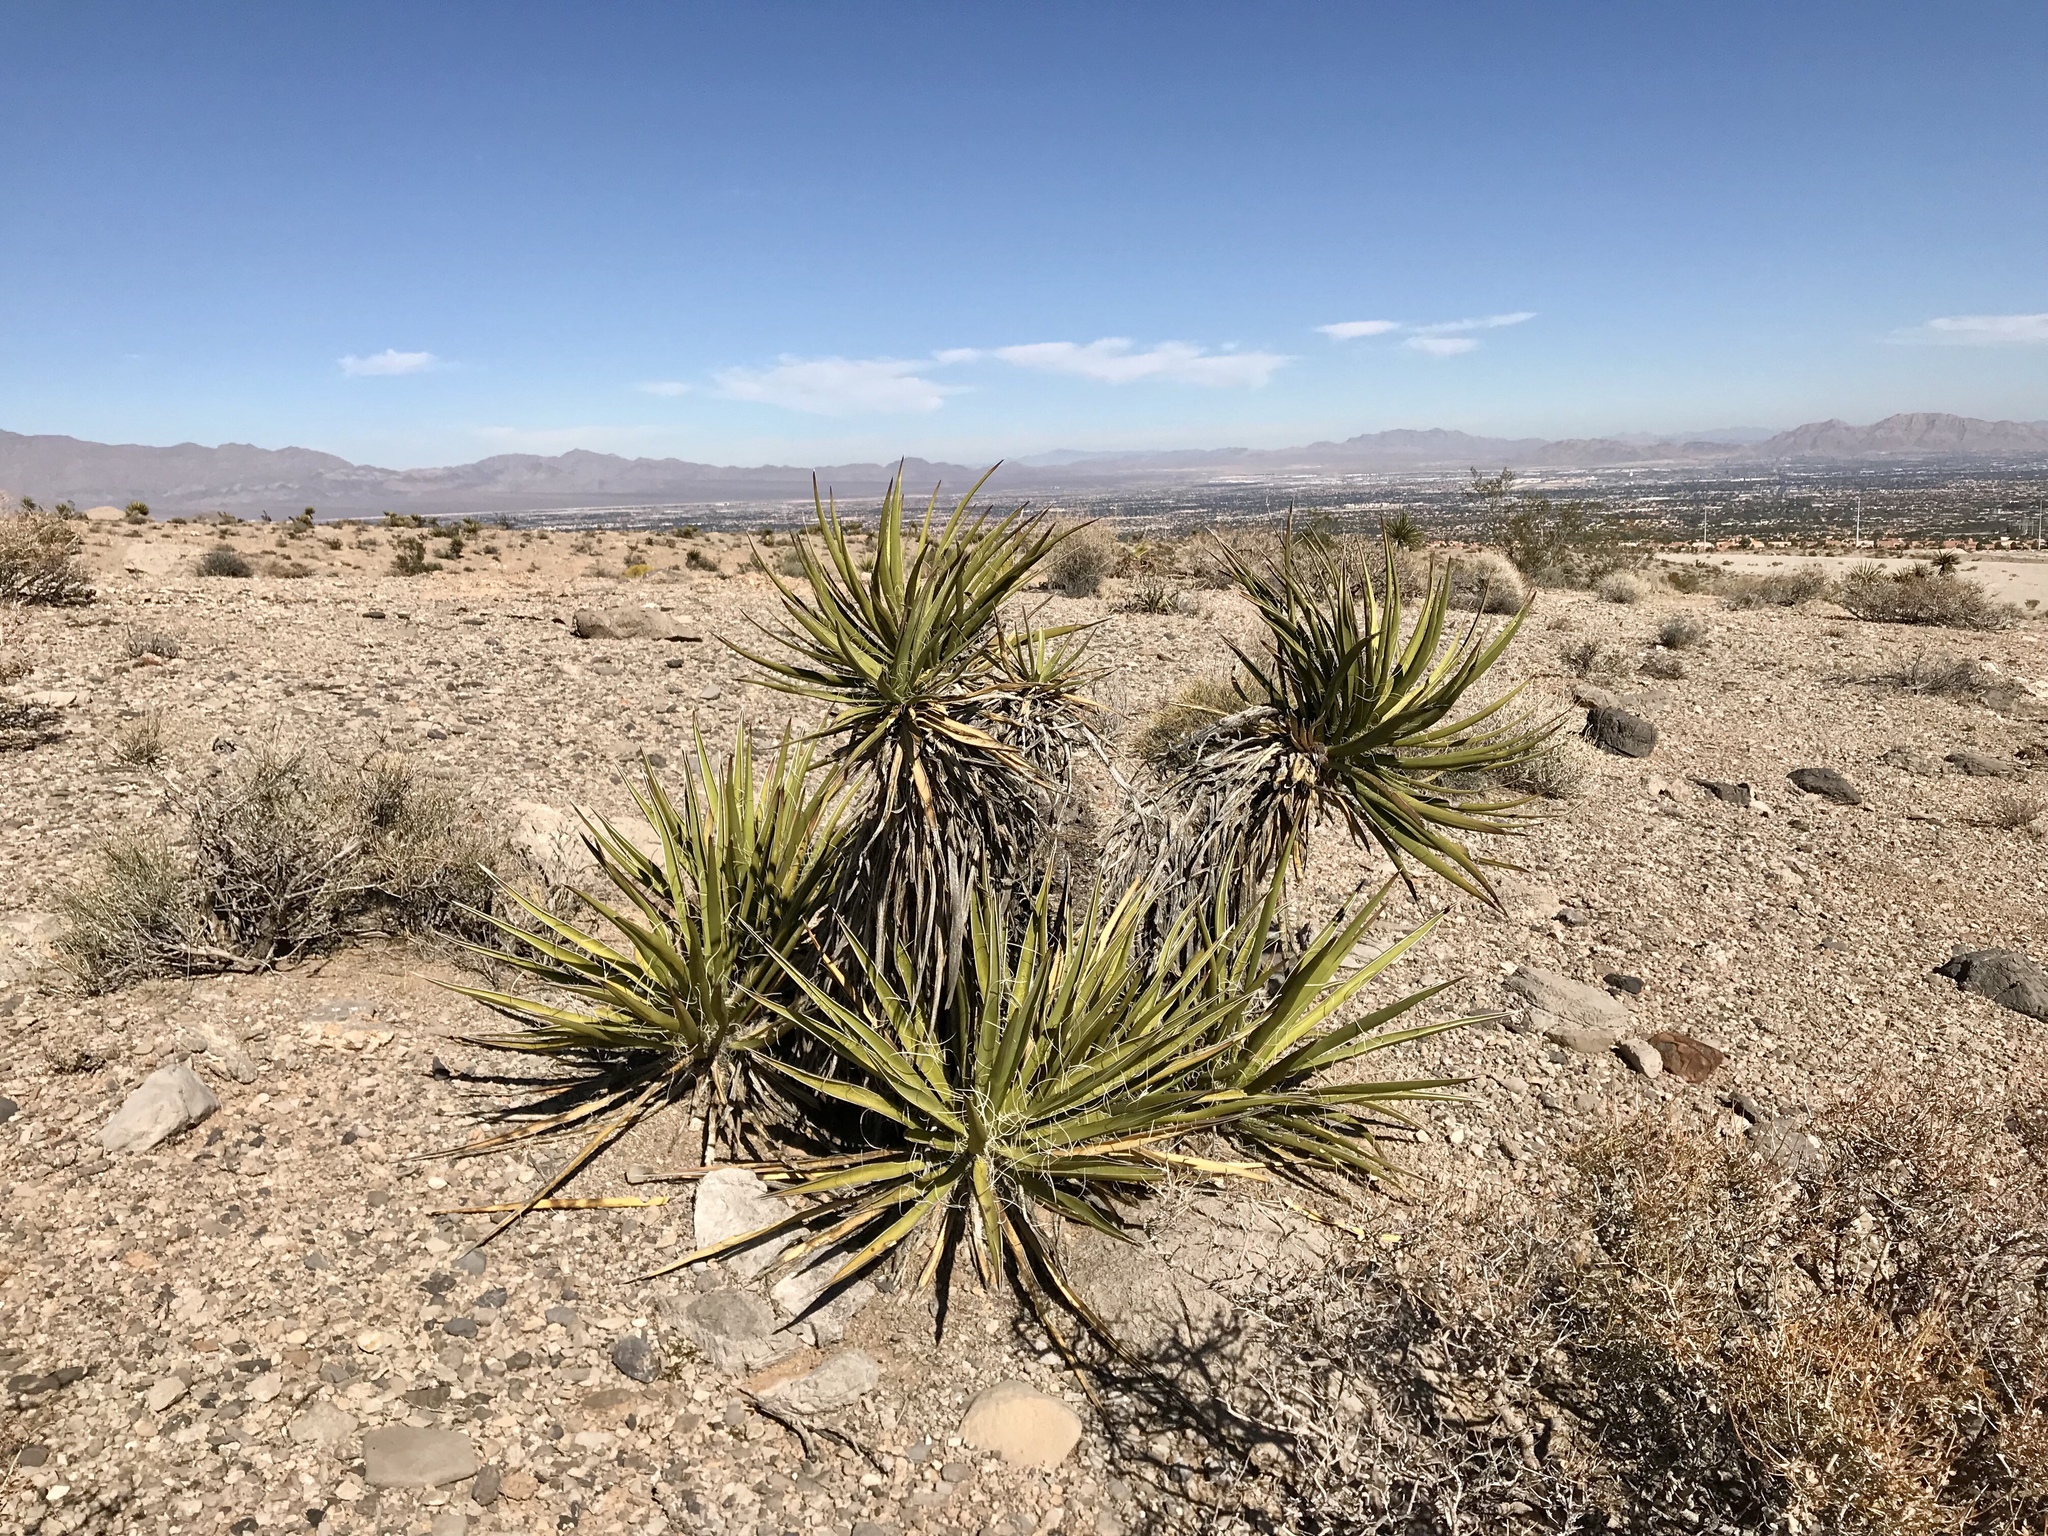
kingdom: Plantae
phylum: Tracheophyta
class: Liliopsida
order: Asparagales
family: Asparagaceae
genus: Yucca
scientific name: Yucca schidigera
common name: Mojave yucca
